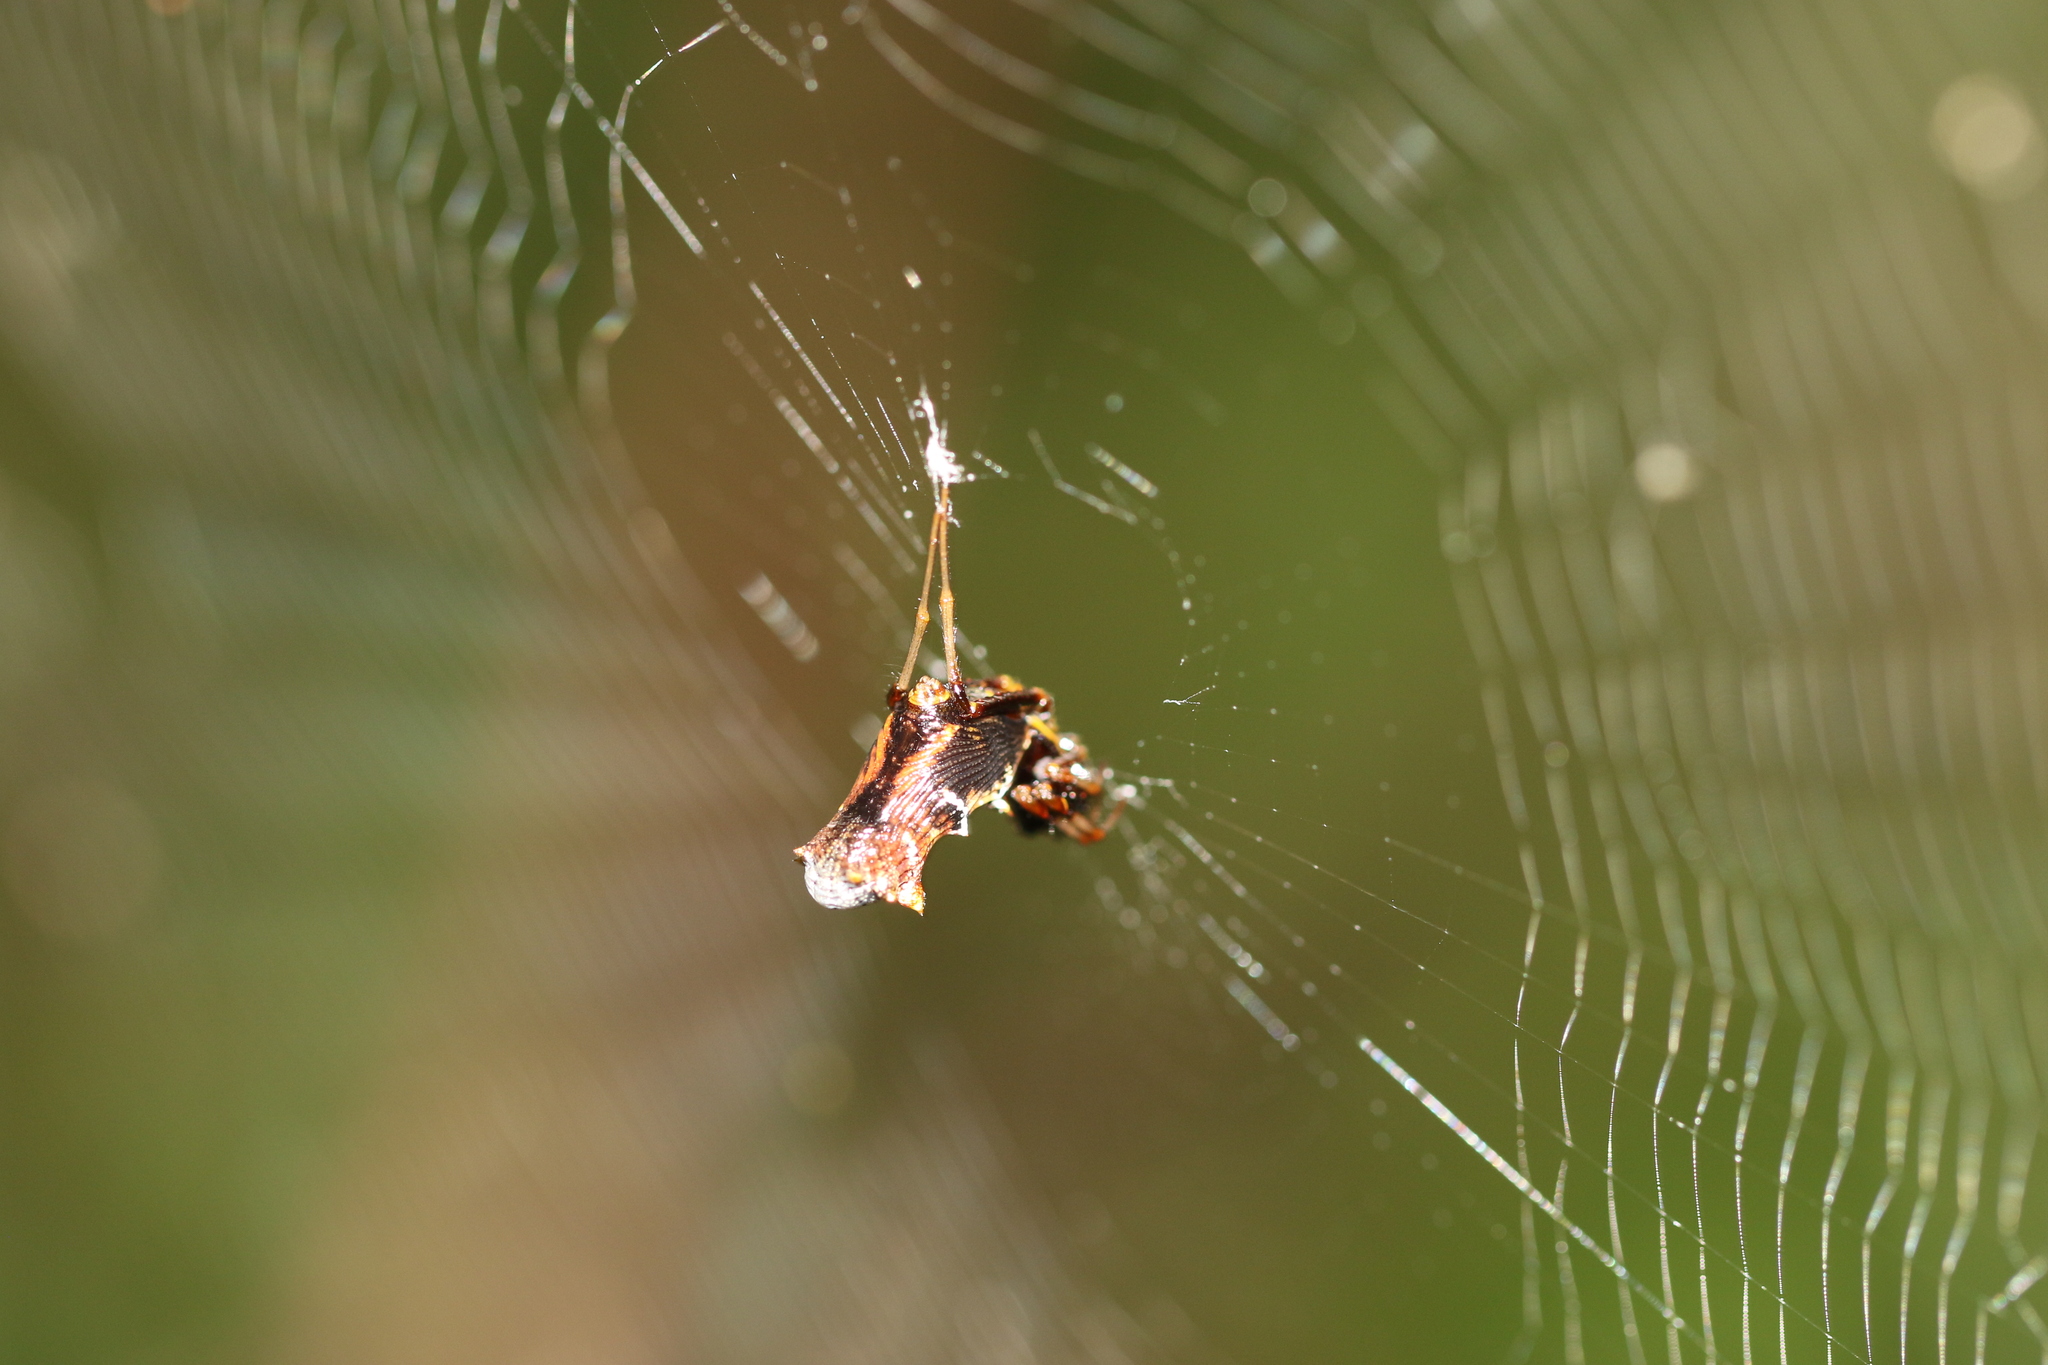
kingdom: Animalia
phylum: Arthropoda
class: Arachnida
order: Araneae
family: Araneidae
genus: Micrathena
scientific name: Micrathena spitzi
